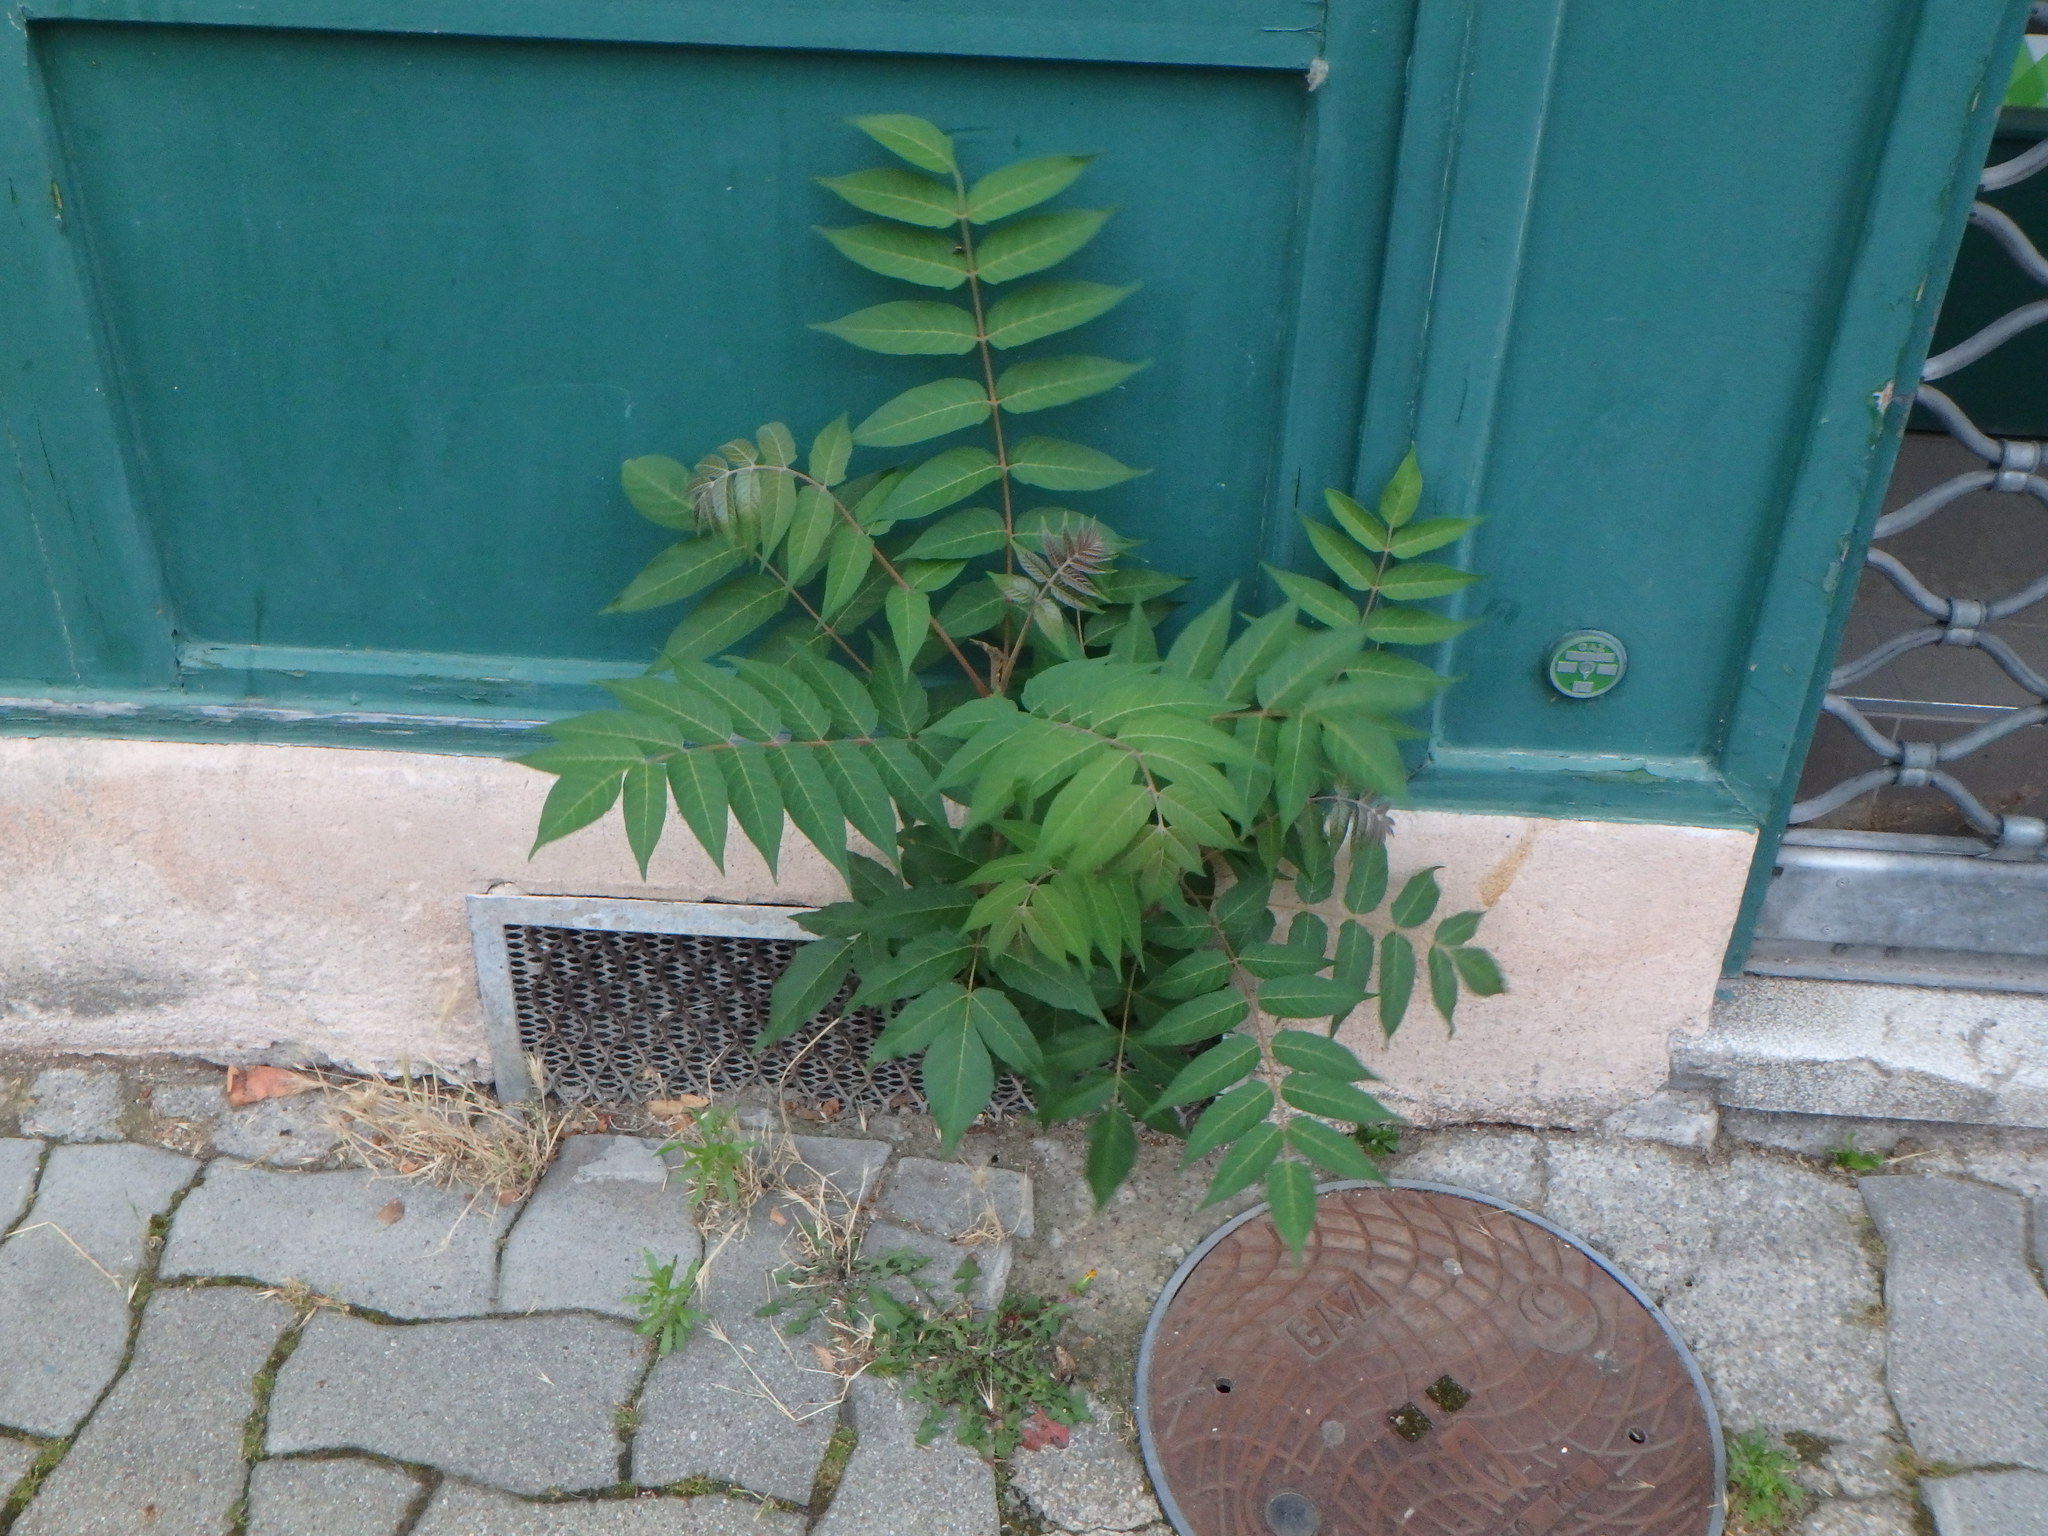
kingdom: Plantae
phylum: Tracheophyta
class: Magnoliopsida
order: Sapindales
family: Simaroubaceae
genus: Ailanthus
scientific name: Ailanthus altissima
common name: Tree-of-heaven
